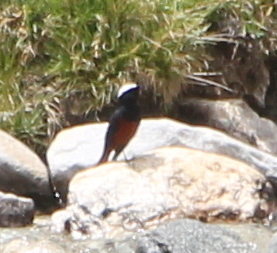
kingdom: Animalia
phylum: Chordata
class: Aves
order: Passeriformes
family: Muscicapidae
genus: Chaimarrornis
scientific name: Chaimarrornis leucocephalus
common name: White-capped redstart
